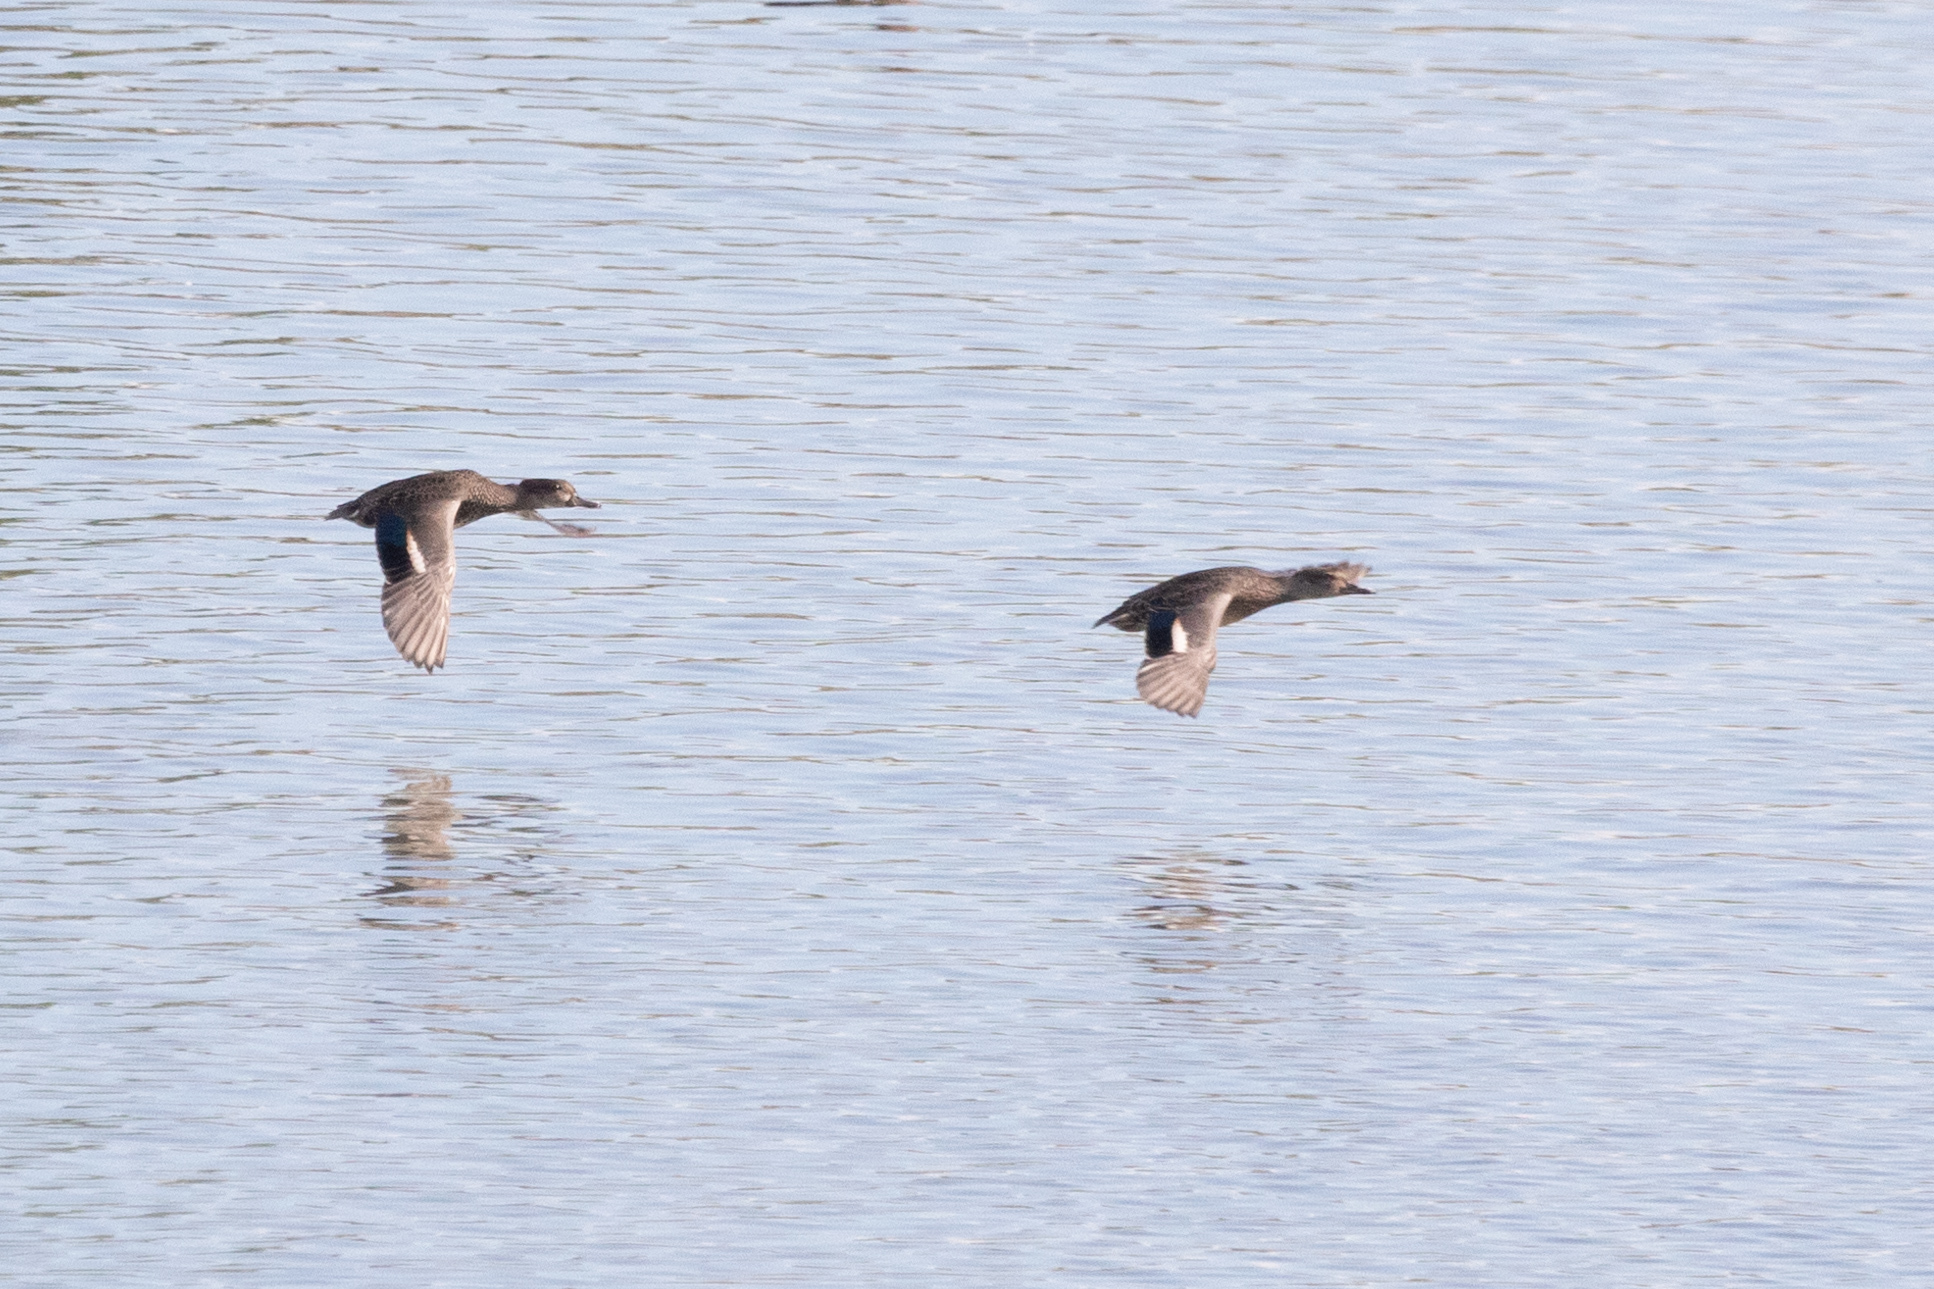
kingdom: Animalia
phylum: Chordata
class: Aves
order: Anseriformes
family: Anatidae
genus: Anas
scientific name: Anas crecca
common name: Eurasian teal
